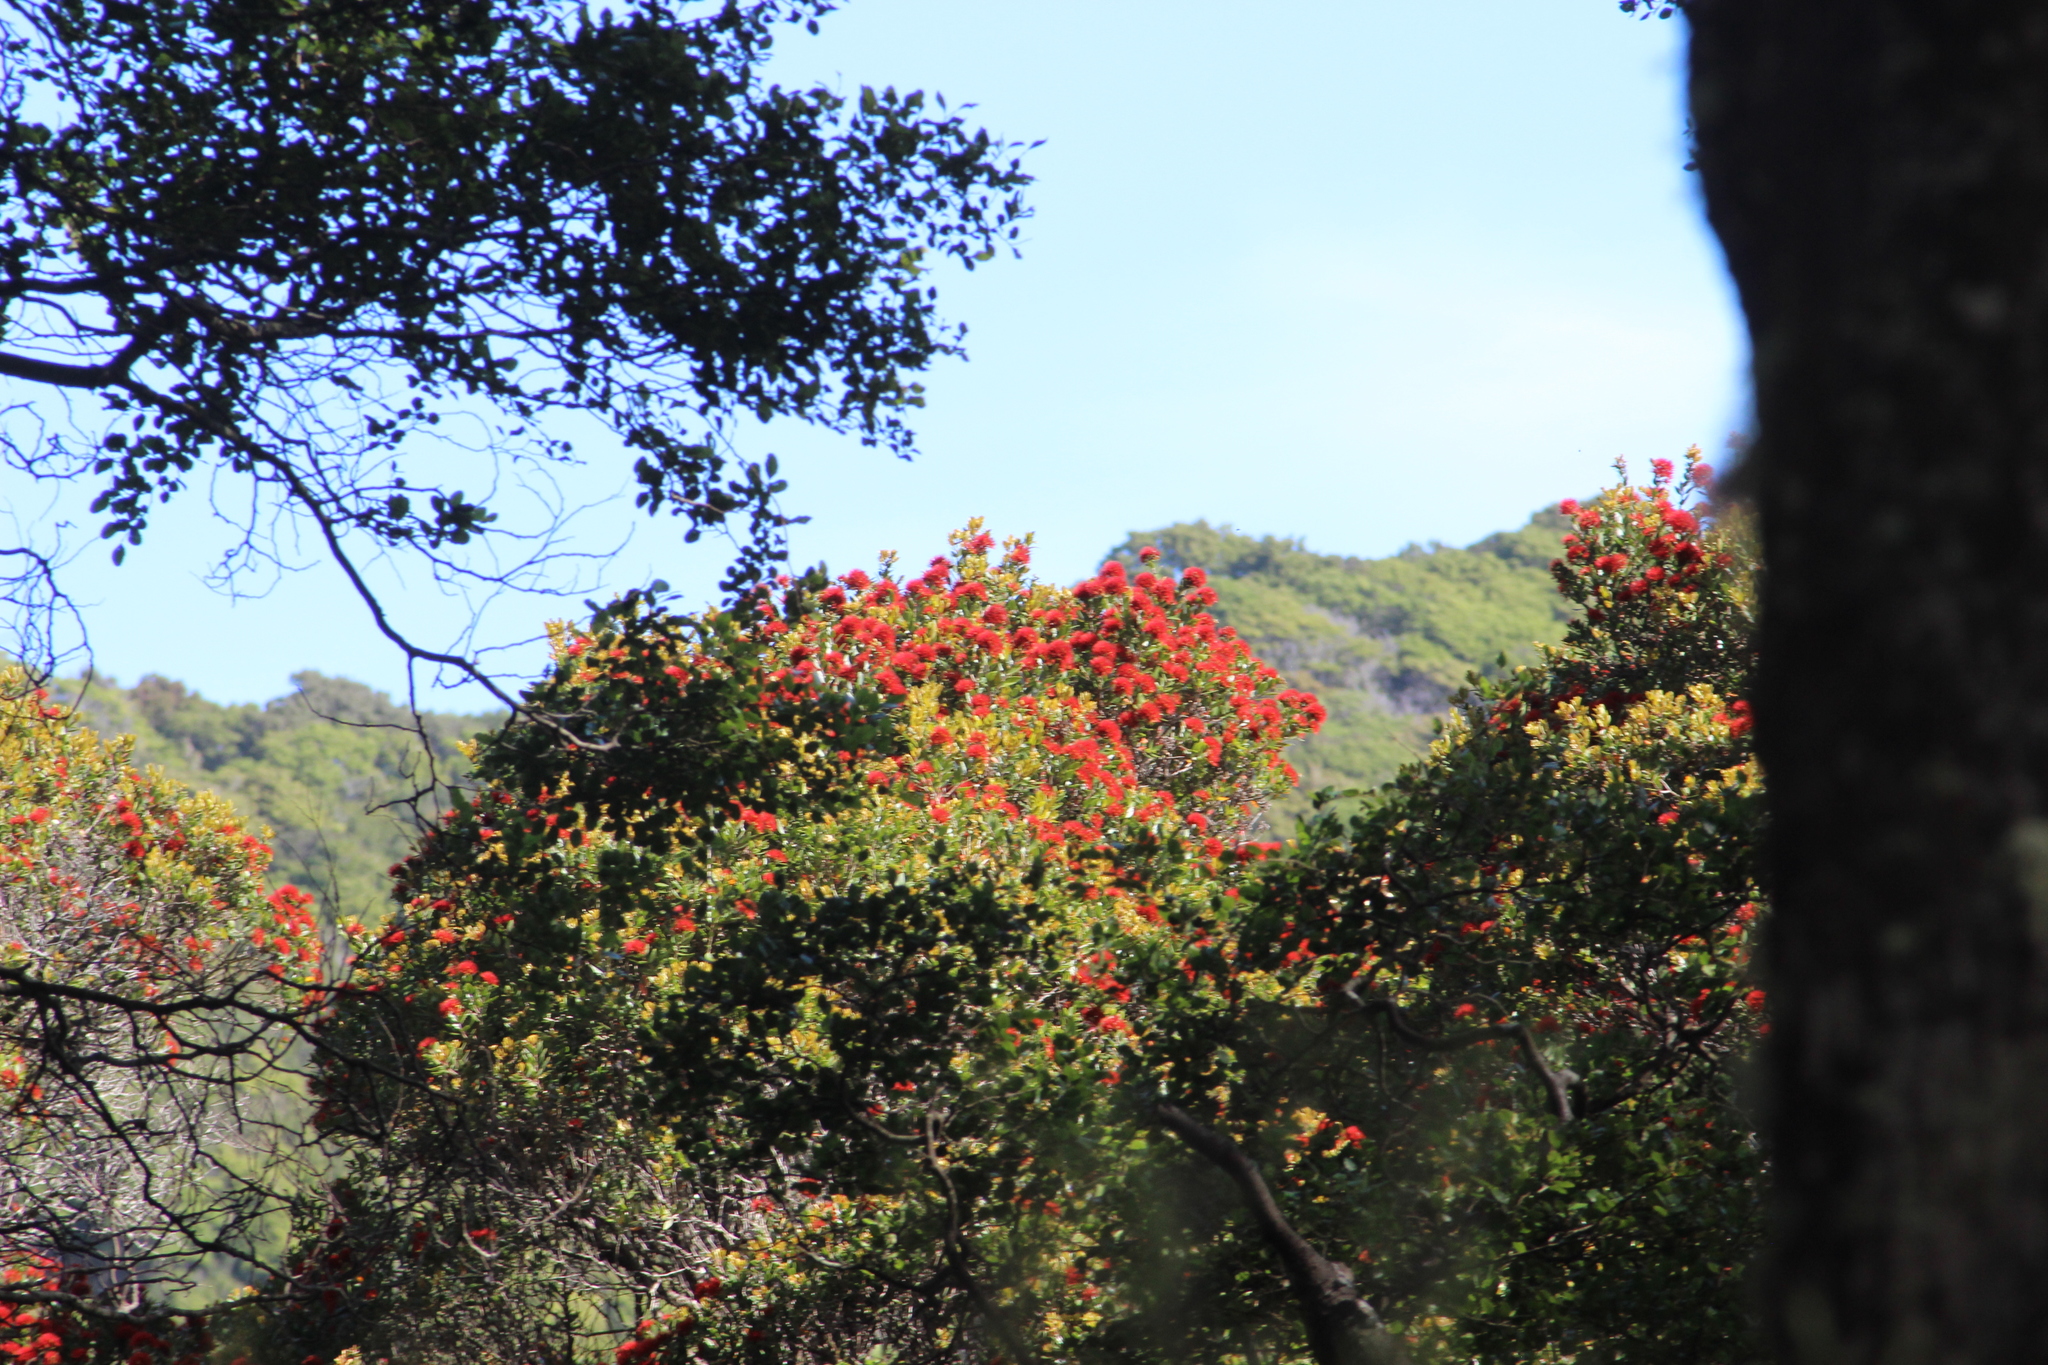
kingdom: Plantae
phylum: Tracheophyta
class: Magnoliopsida
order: Myrtales
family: Myrtaceae
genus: Metrosideros
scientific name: Metrosideros robusta
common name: Northern rata
